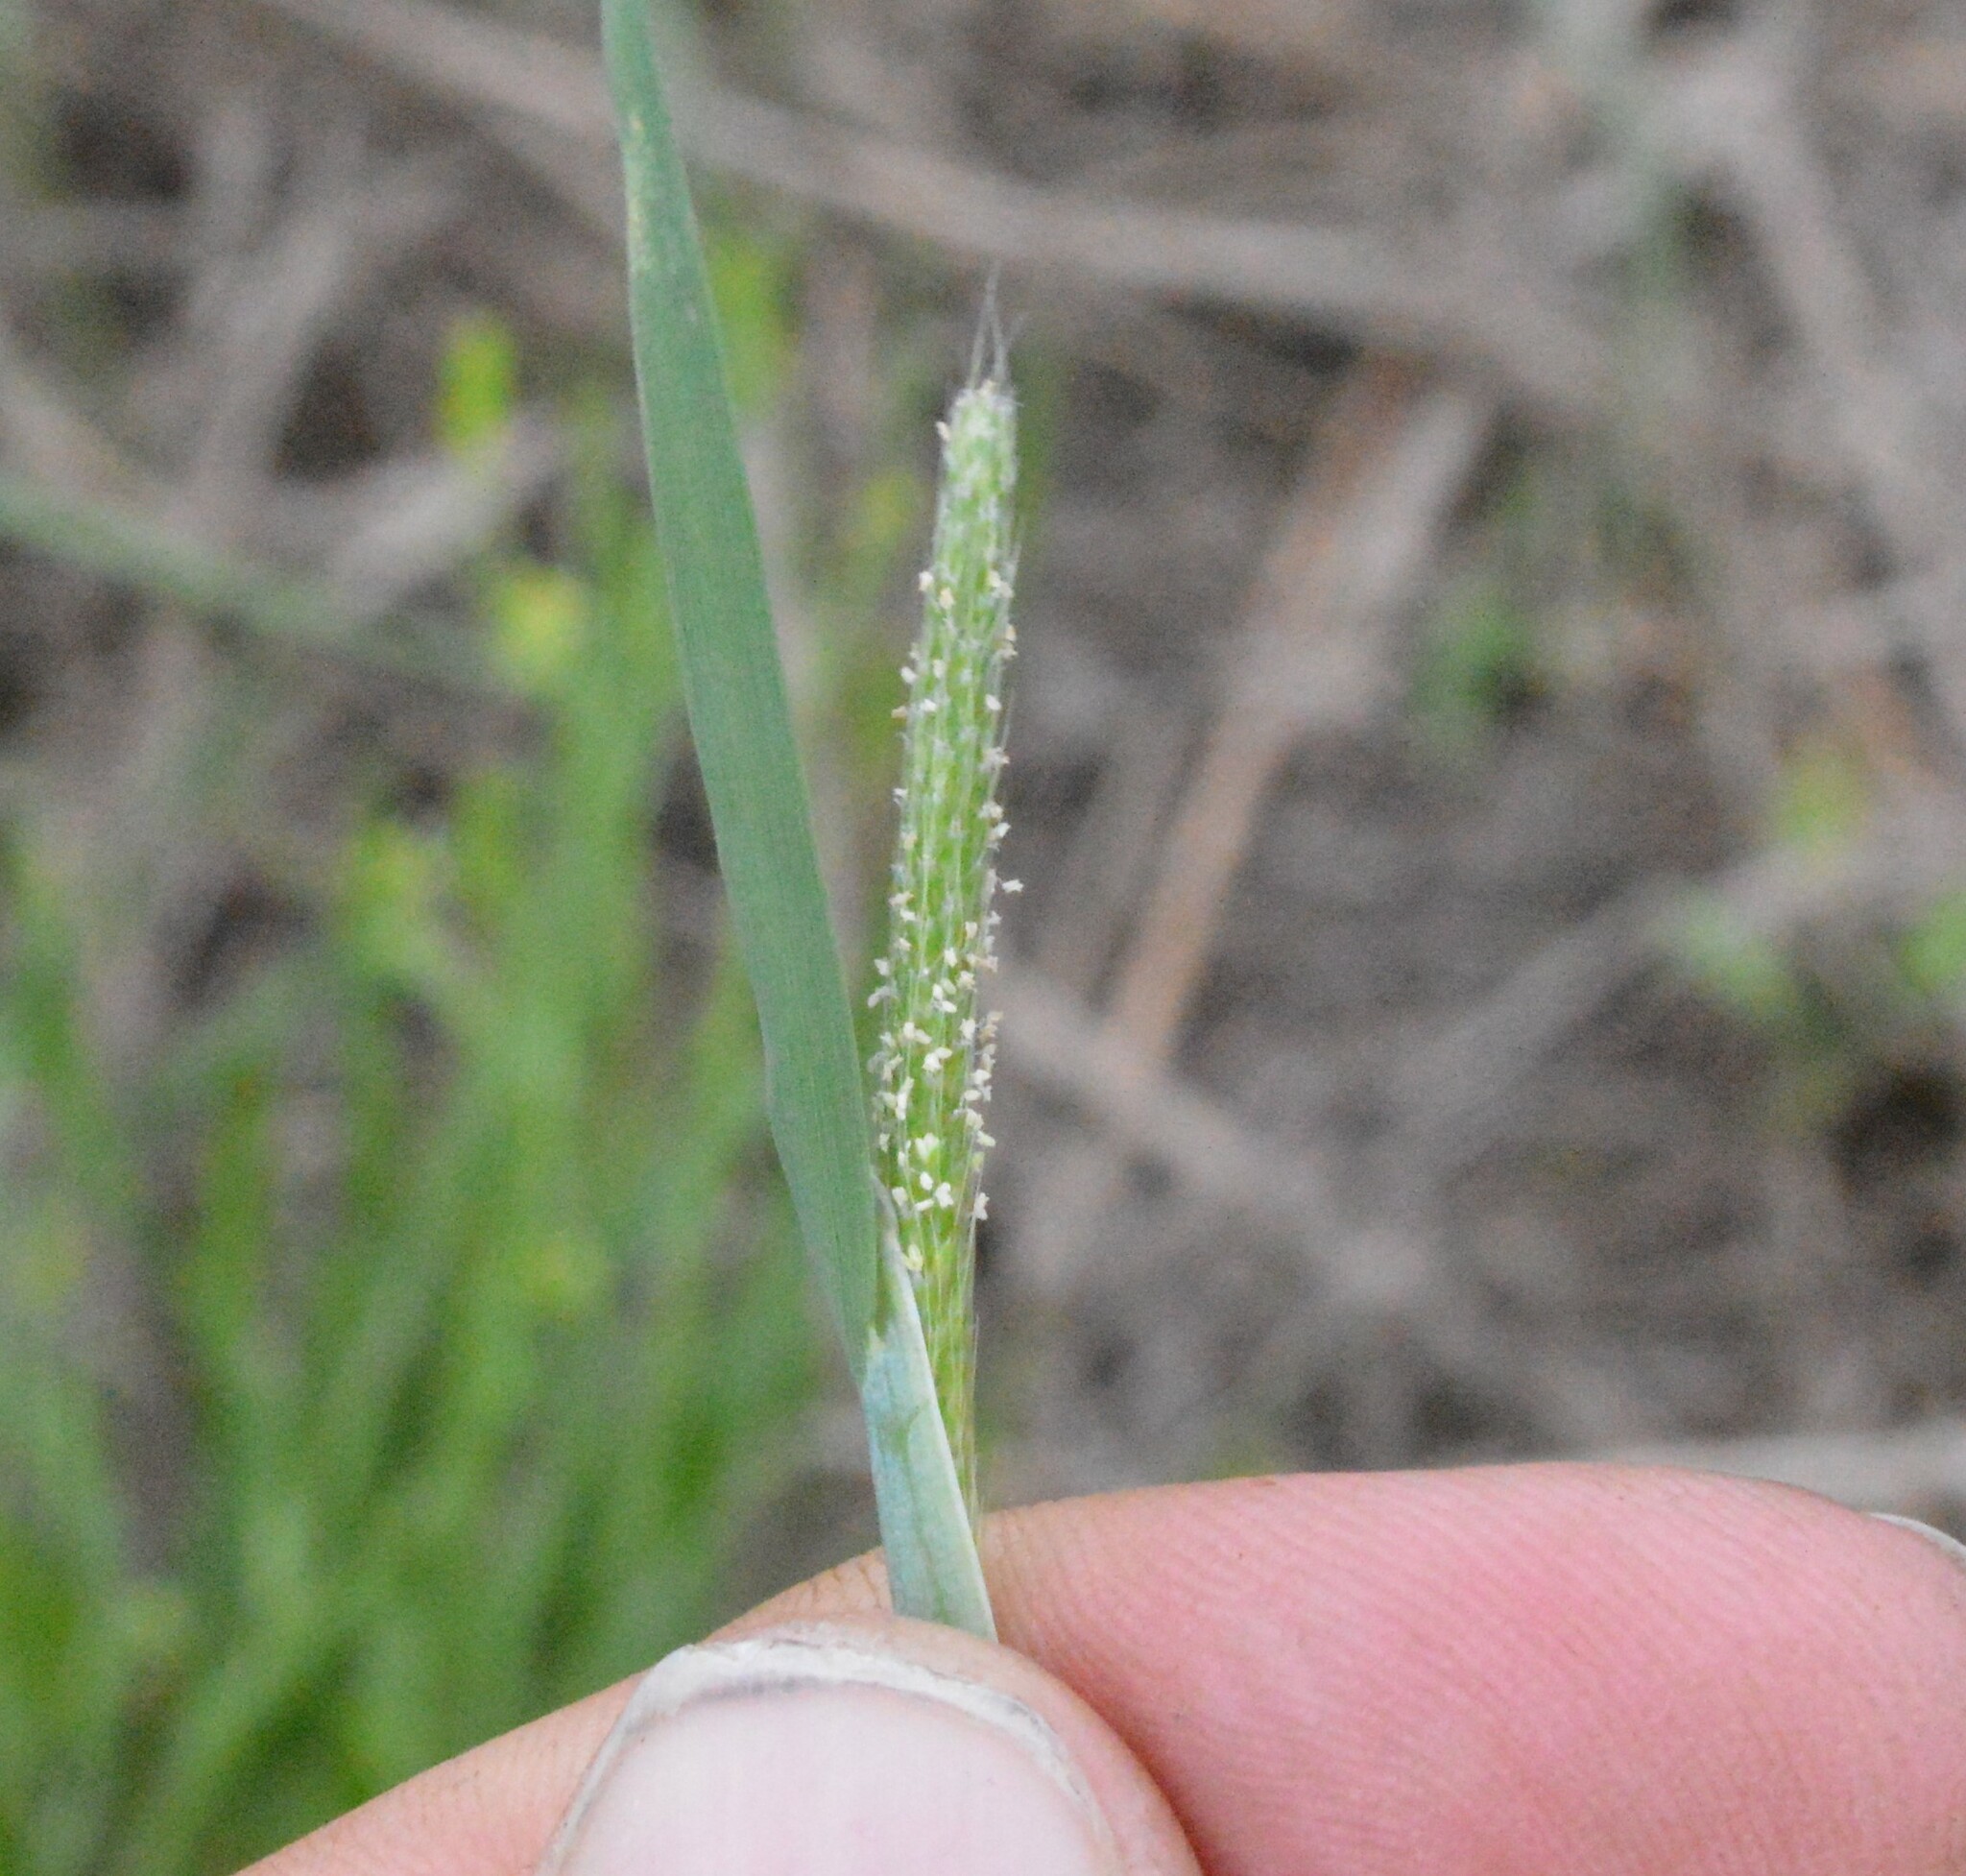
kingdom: Plantae
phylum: Tracheophyta
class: Liliopsida
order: Poales
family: Poaceae
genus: Alopecurus
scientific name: Alopecurus carolinianus
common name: Tufted foxtail
